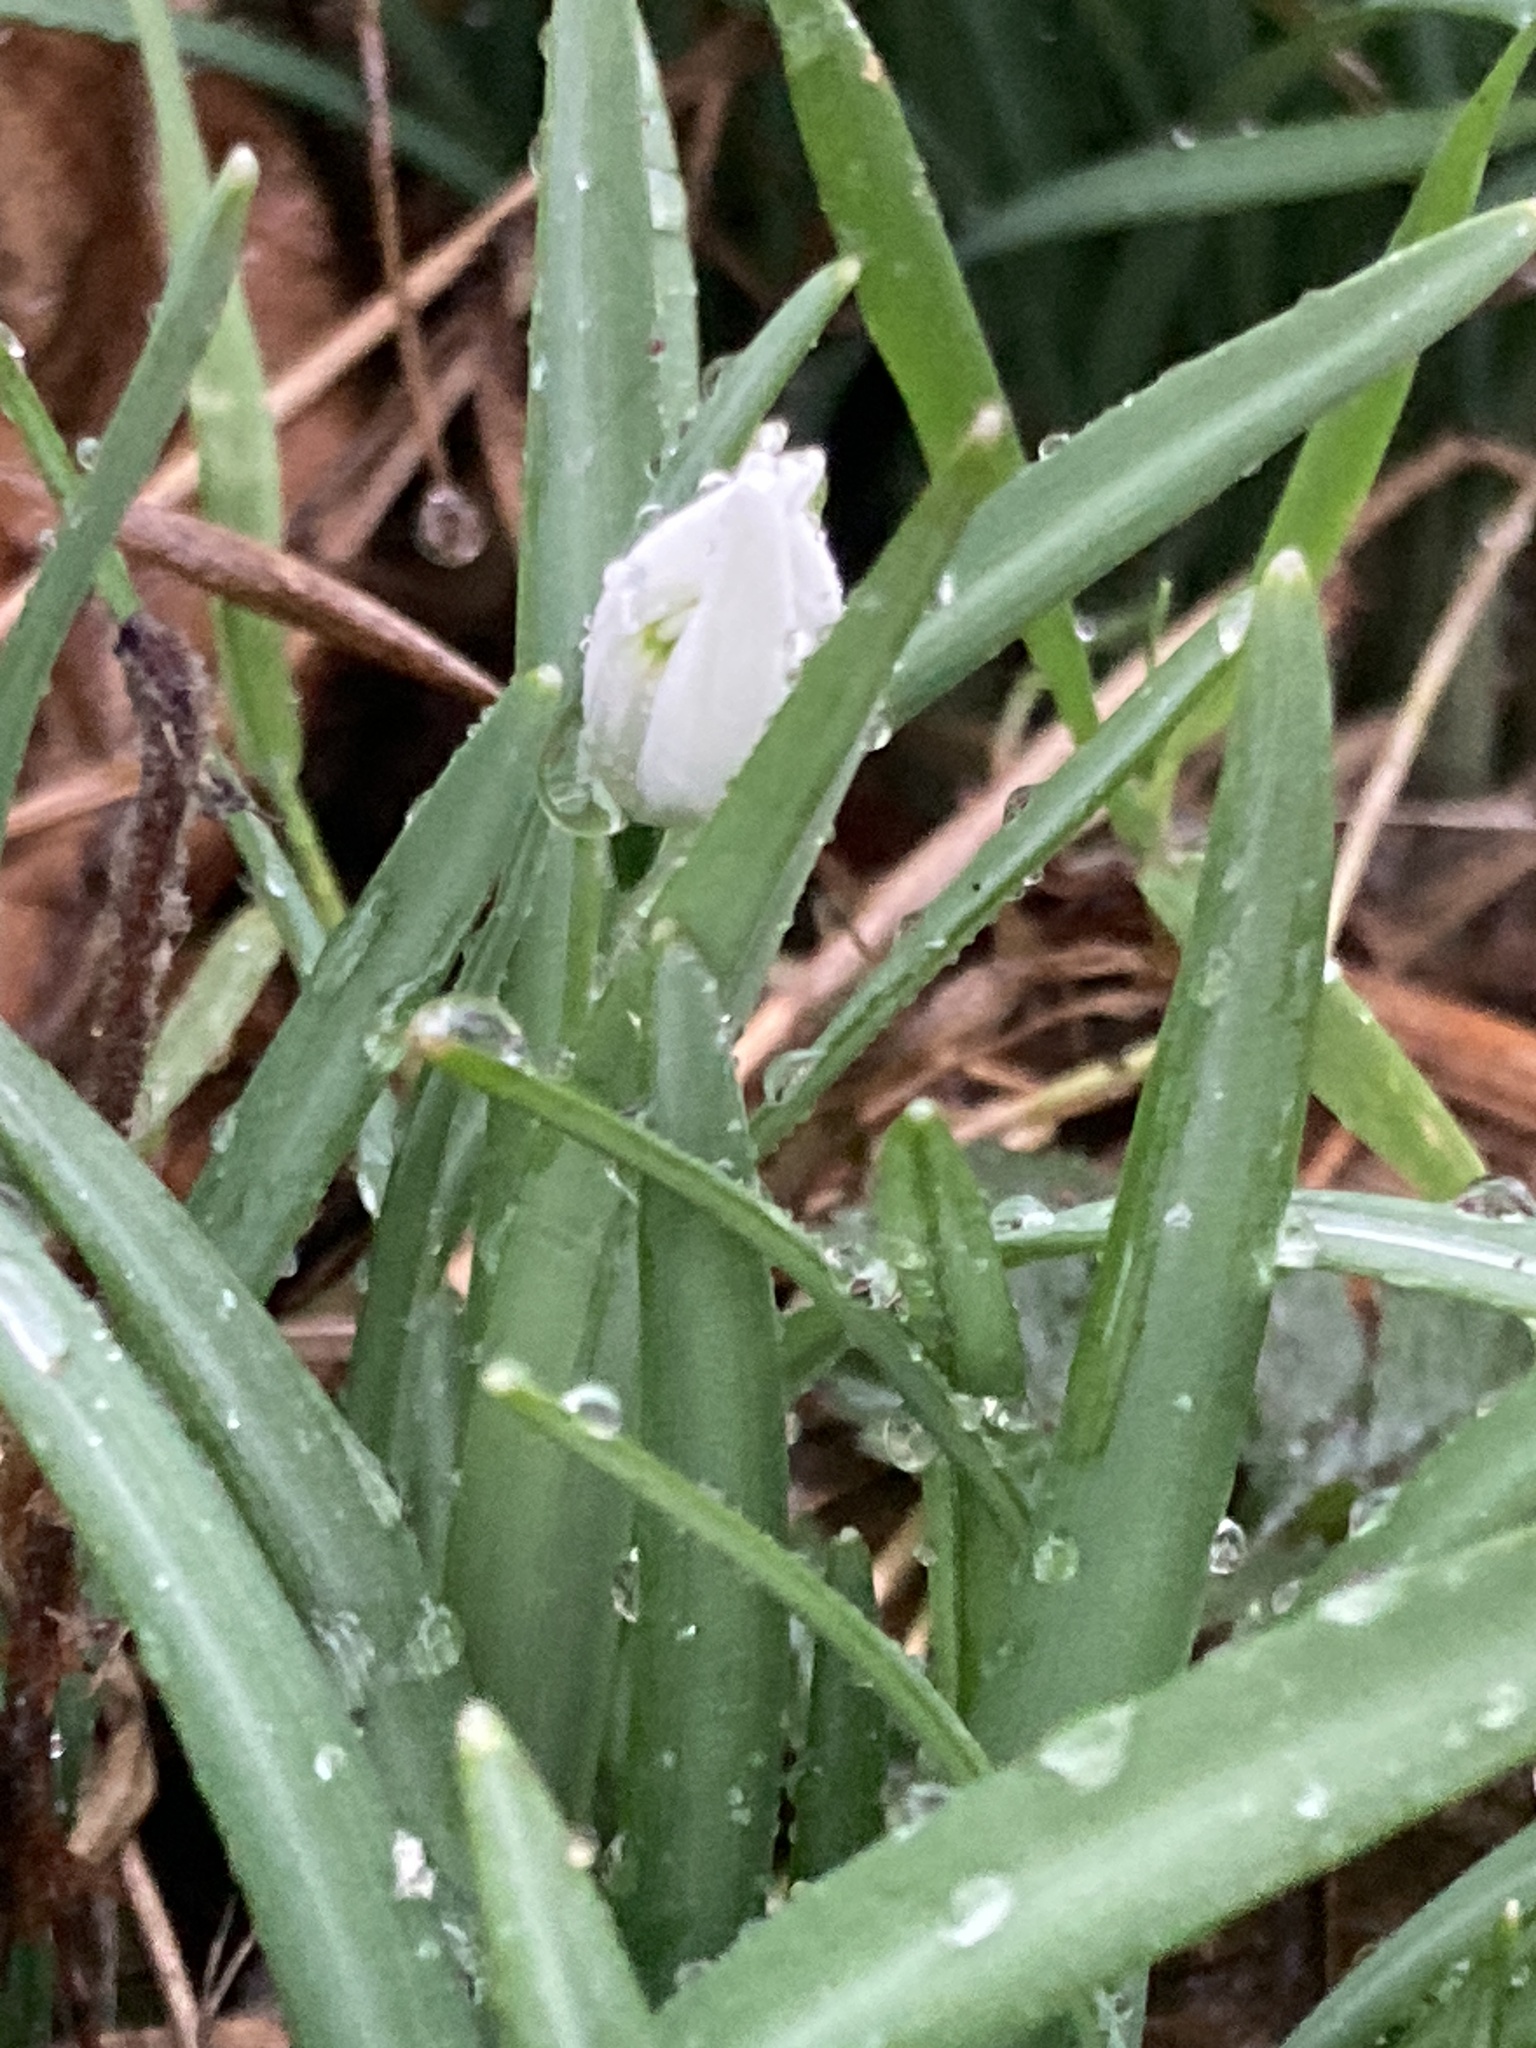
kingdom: Plantae
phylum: Tracheophyta
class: Liliopsida
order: Asparagales
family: Amaryllidaceae
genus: Galanthus
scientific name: Galanthus nivalis
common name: Snowdrop
